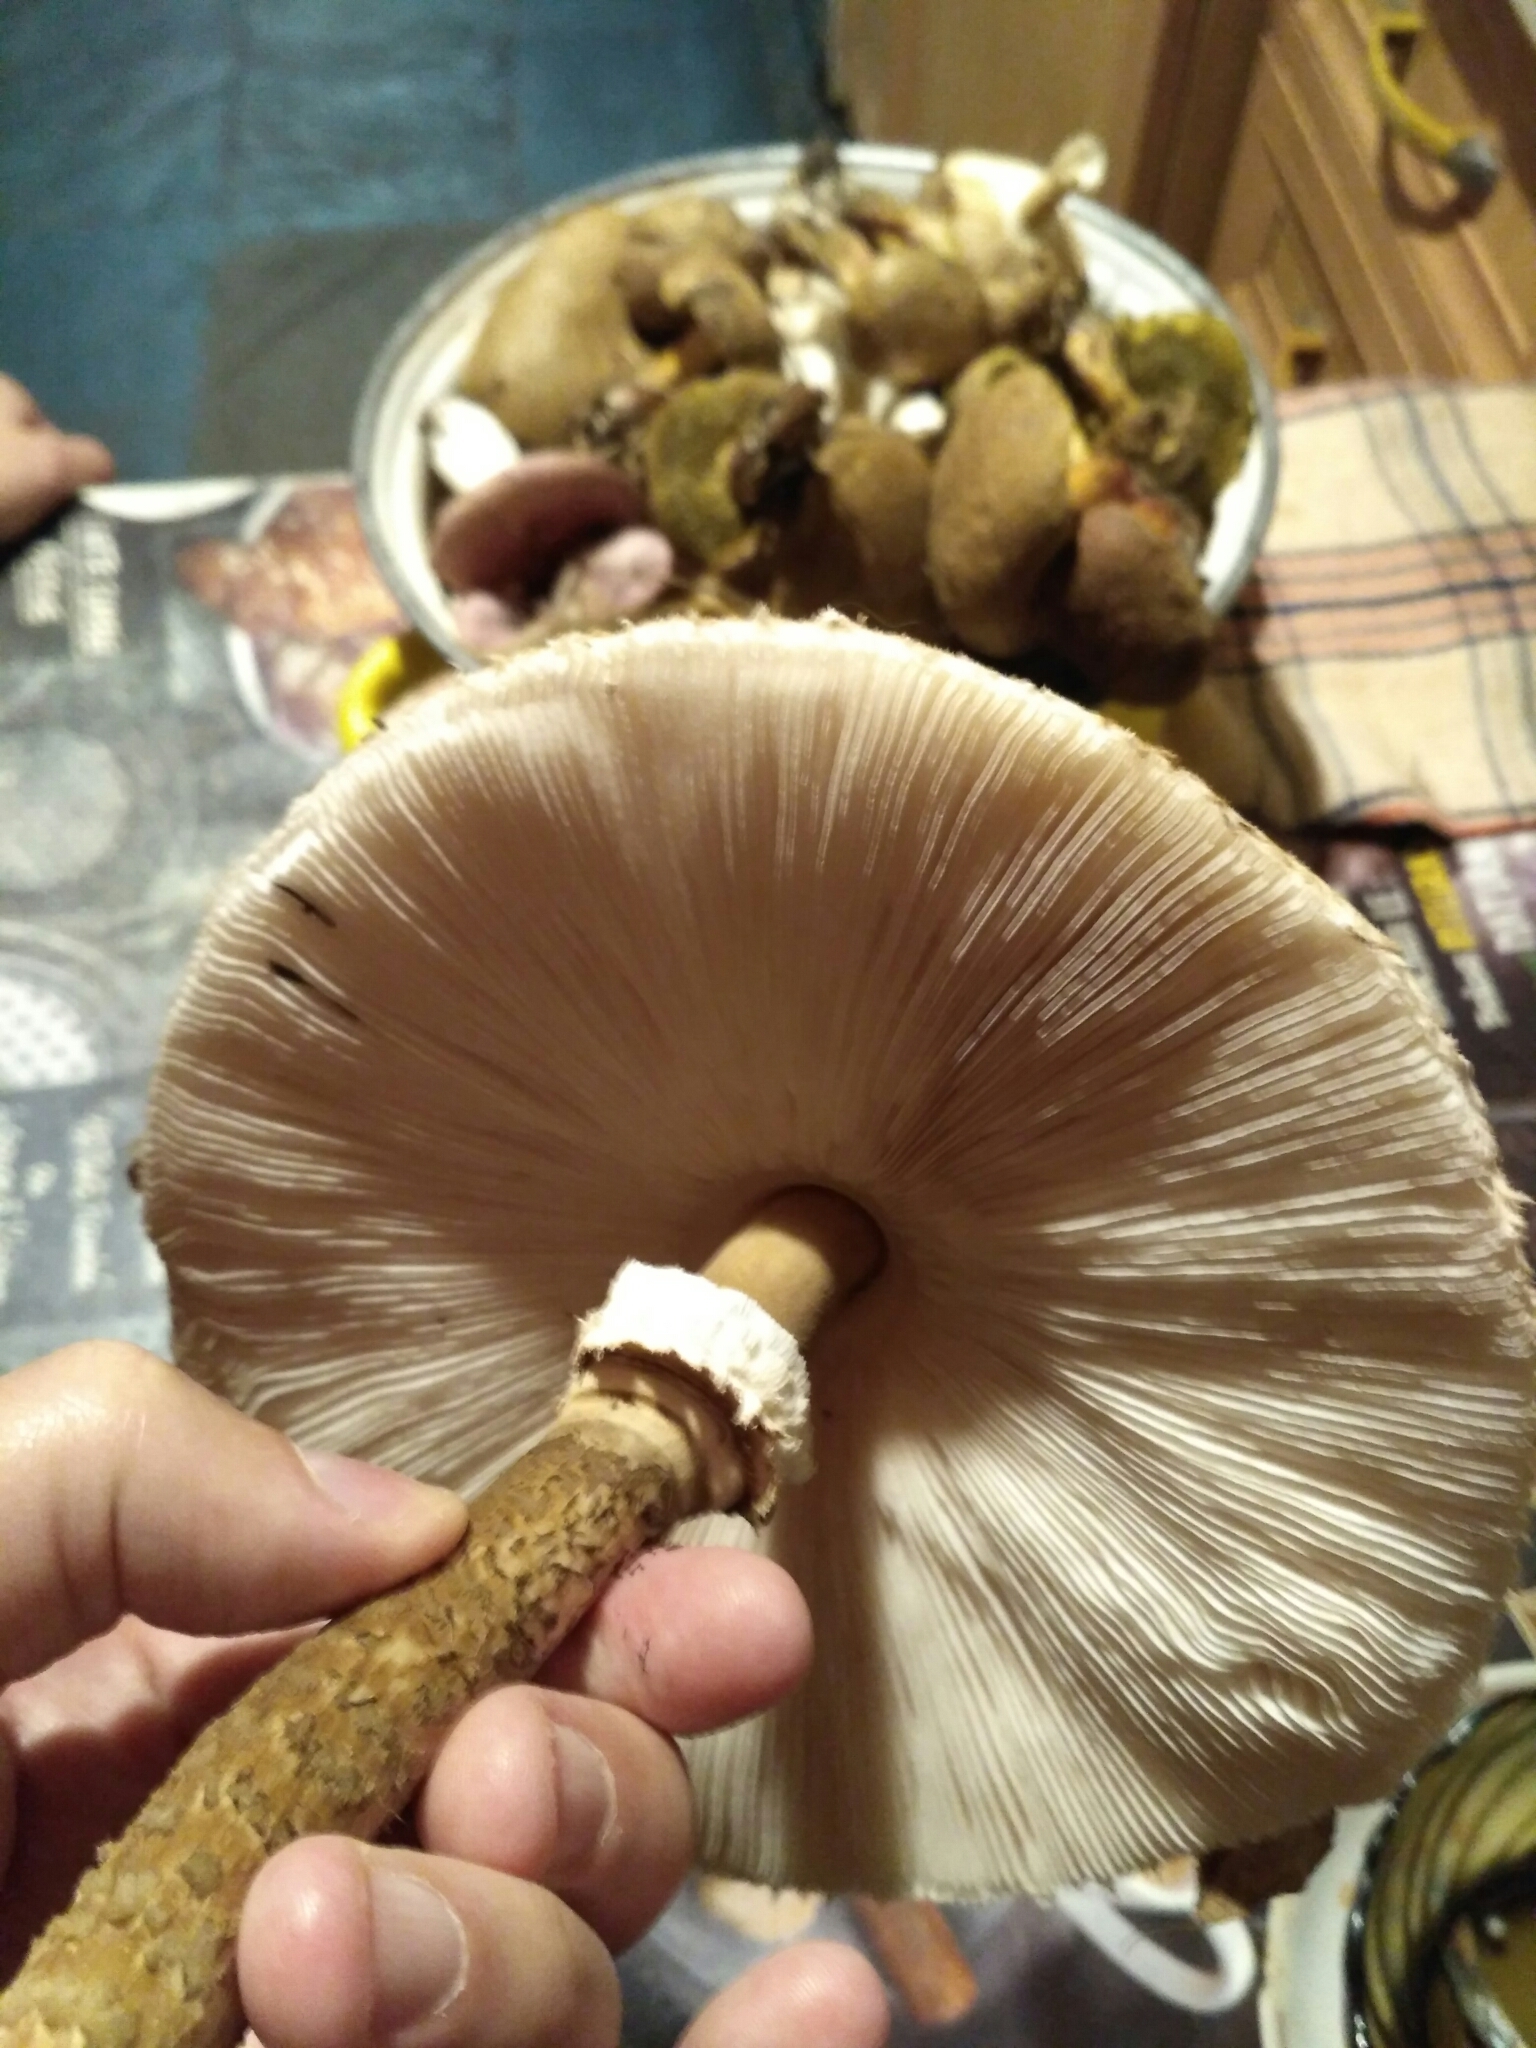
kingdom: Fungi
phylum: Basidiomycota
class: Agaricomycetes
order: Agaricales
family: Agaricaceae
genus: Macrolepiota
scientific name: Macrolepiota procera
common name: Parasol
